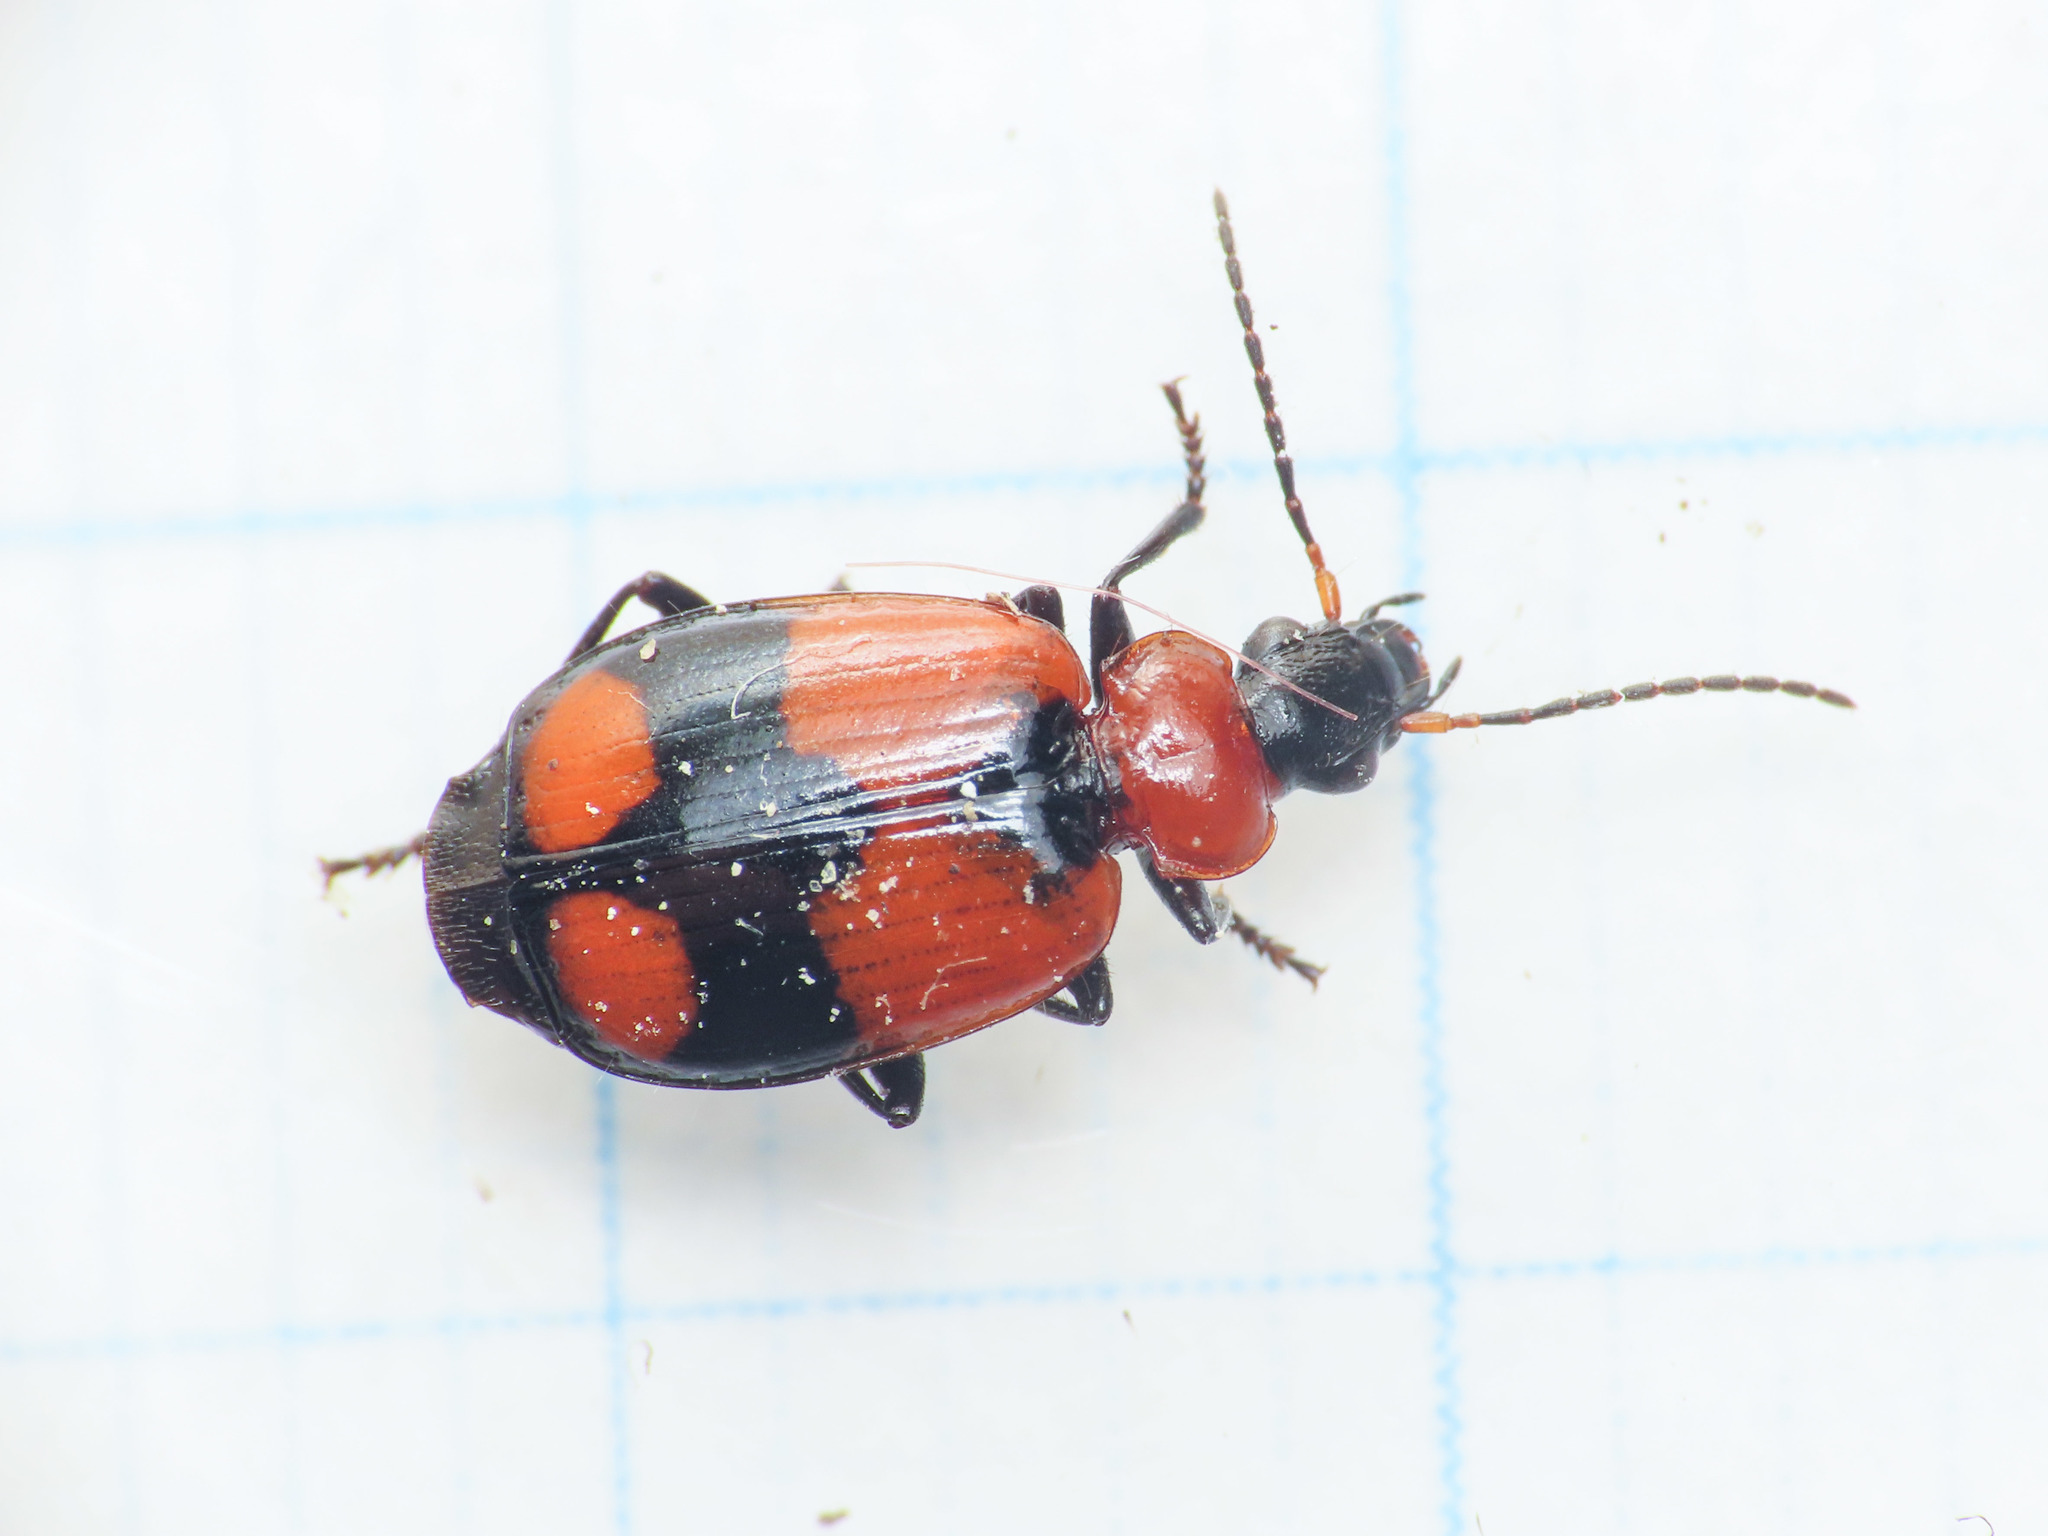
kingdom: Animalia
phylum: Arthropoda
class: Insecta
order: Coleoptera
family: Carabidae
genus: Lebia
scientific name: Lebia cruxminor
